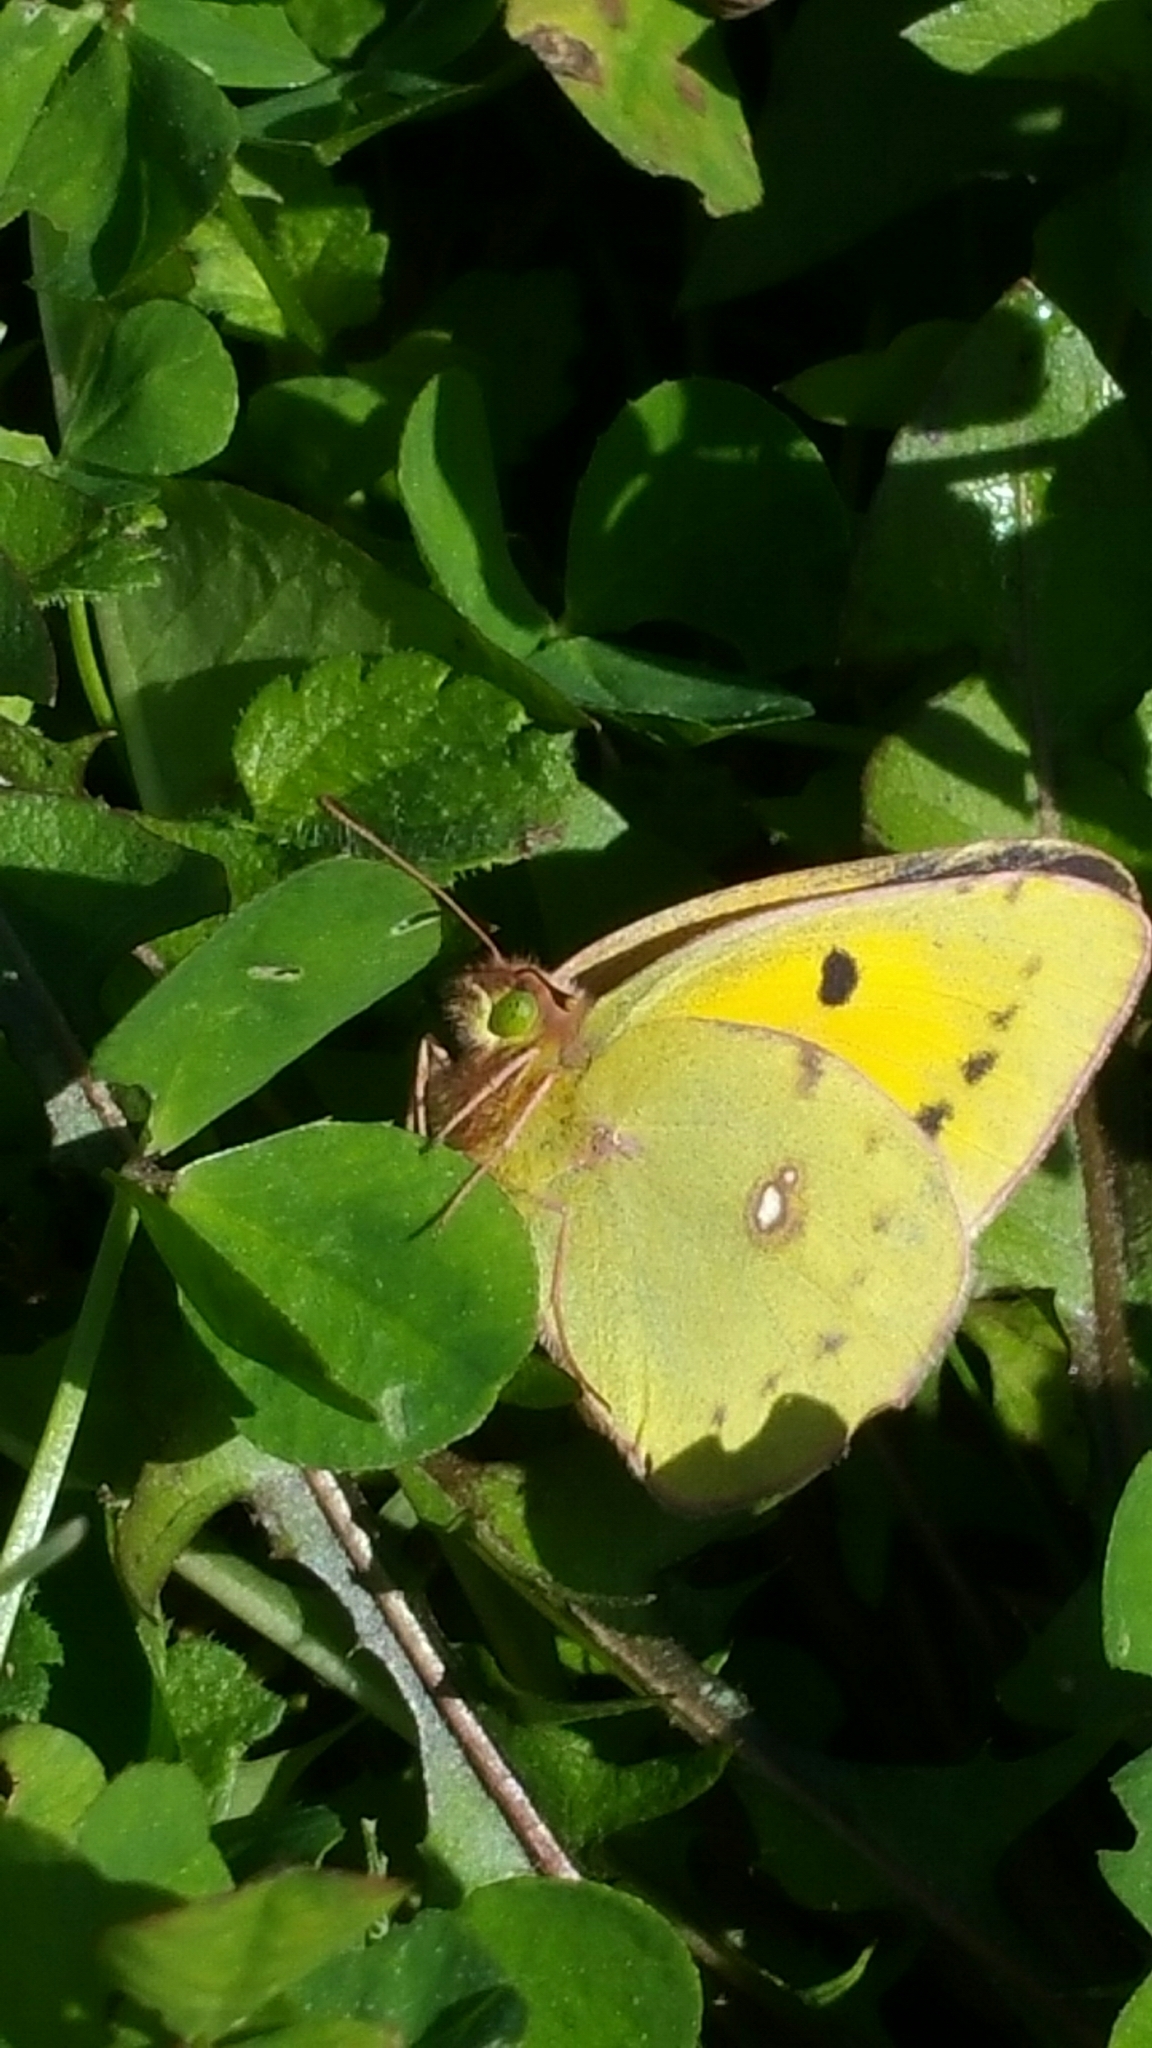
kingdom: Animalia
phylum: Arthropoda
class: Insecta
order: Lepidoptera
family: Pieridae
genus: Colias
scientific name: Colias croceus
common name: Clouded yellow
